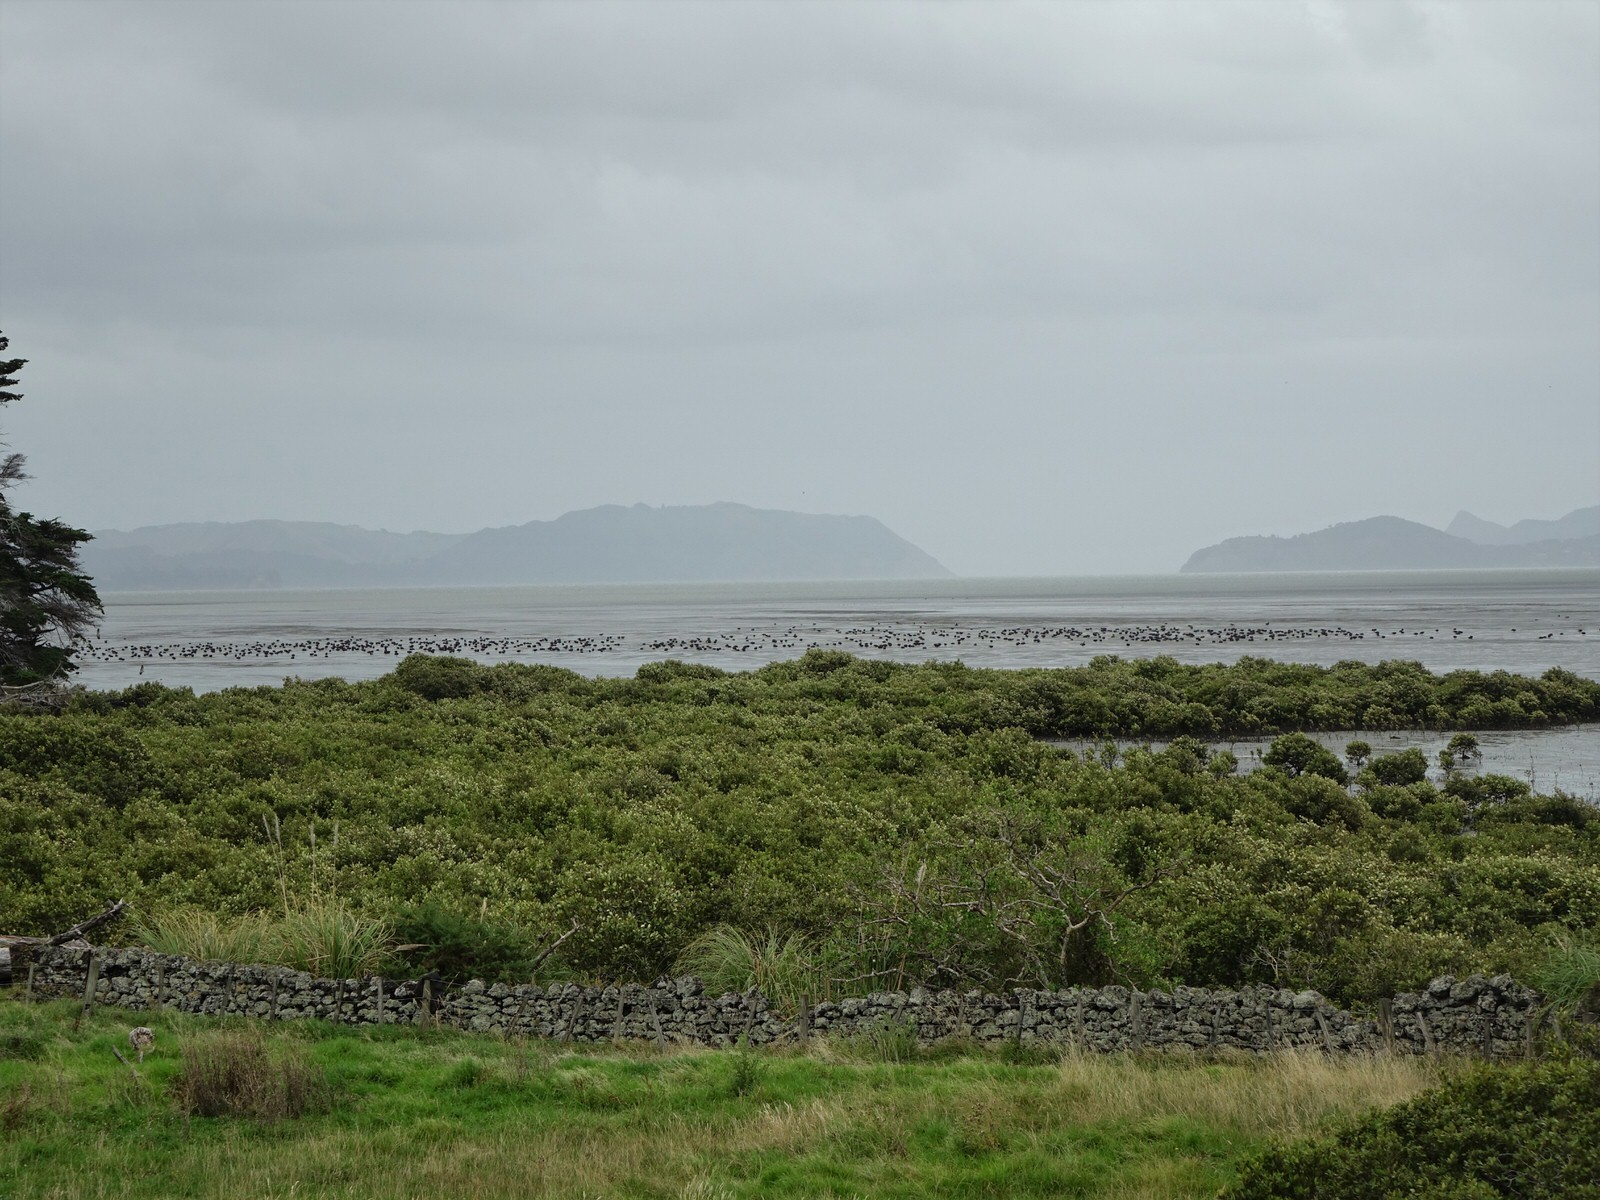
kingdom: Animalia
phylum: Chordata
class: Aves
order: Anseriformes
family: Anatidae
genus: Cygnus
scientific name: Cygnus atratus
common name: Black swan
